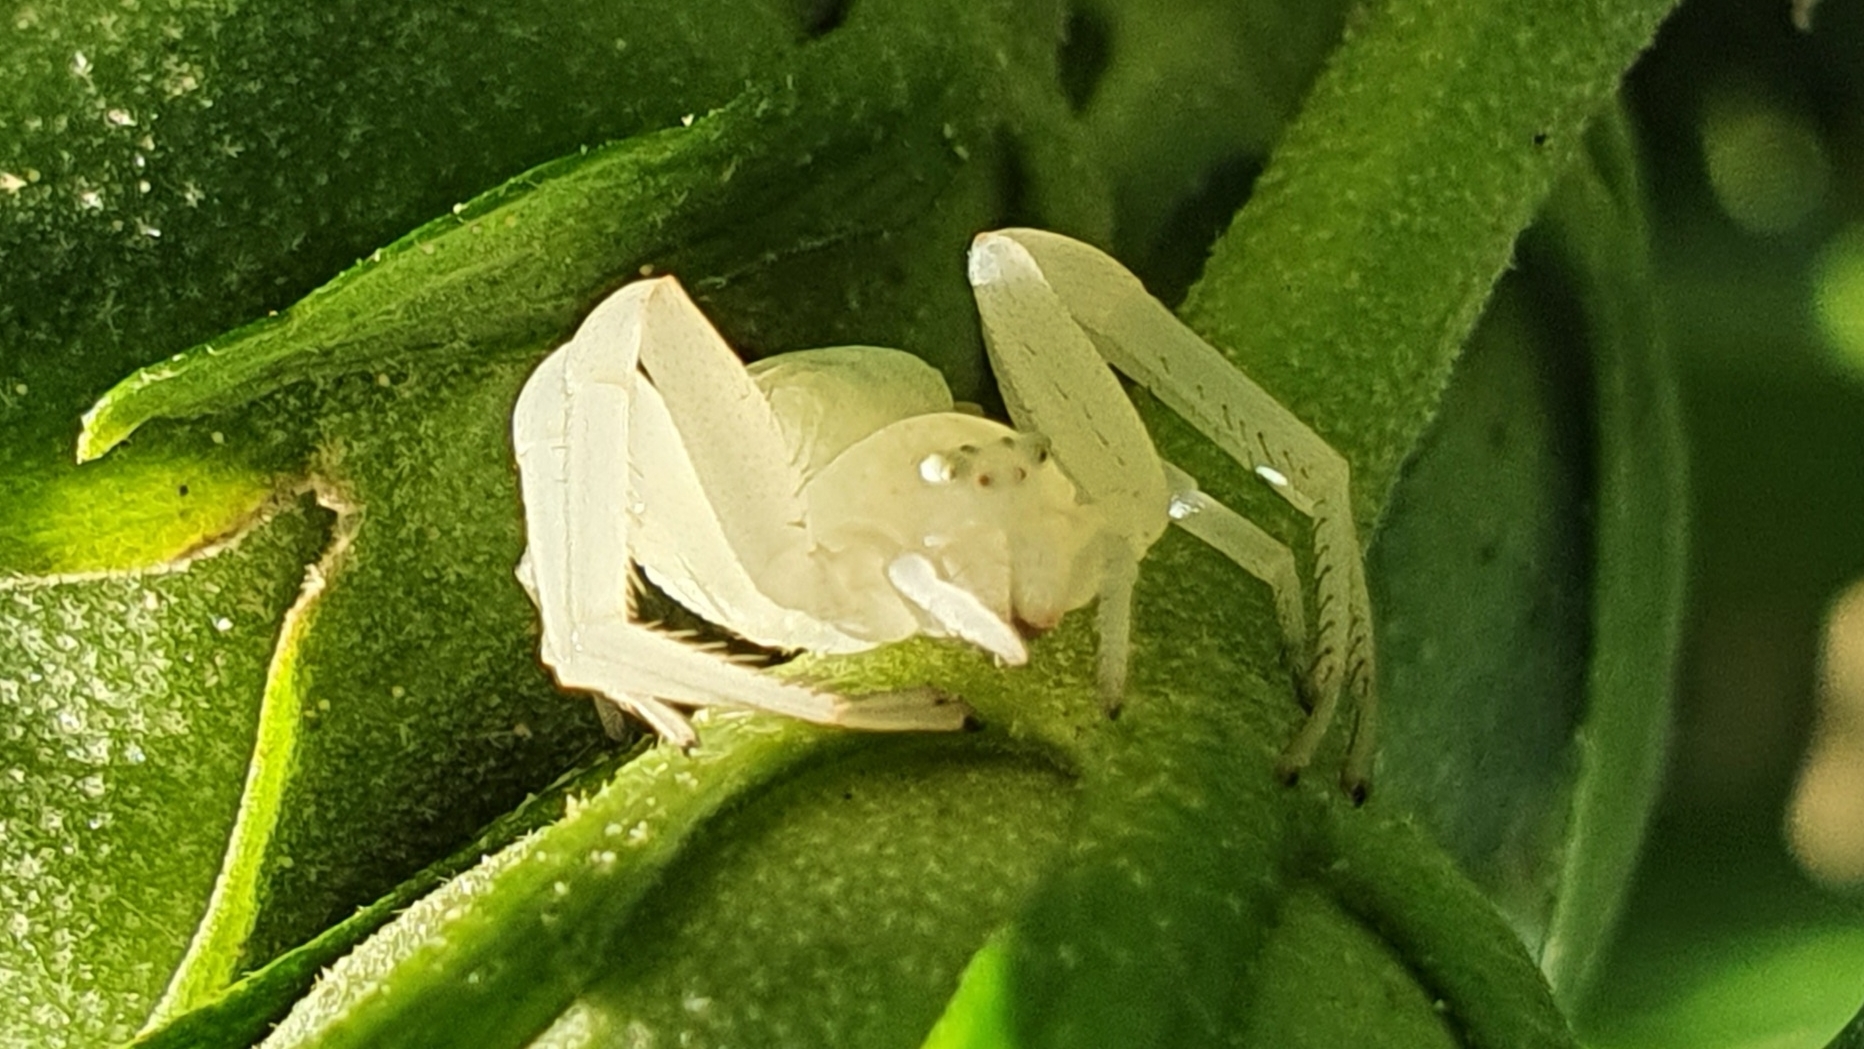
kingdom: Animalia
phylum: Arthropoda
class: Arachnida
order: Araneae
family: Thomisidae
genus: Misumena
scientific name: Misumena vatia
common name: Goldenrod crab spider
